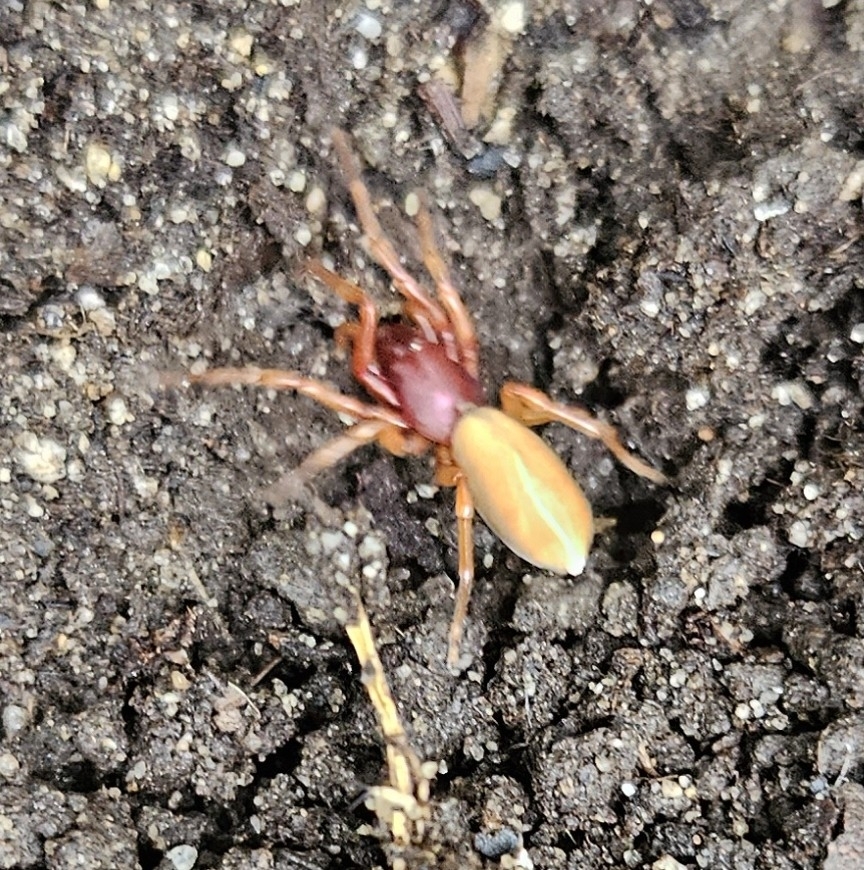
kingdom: Animalia
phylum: Arthropoda
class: Arachnida
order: Araneae
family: Dysderidae
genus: Dysdera
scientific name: Dysdera crocata
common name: Woodlouse spider
